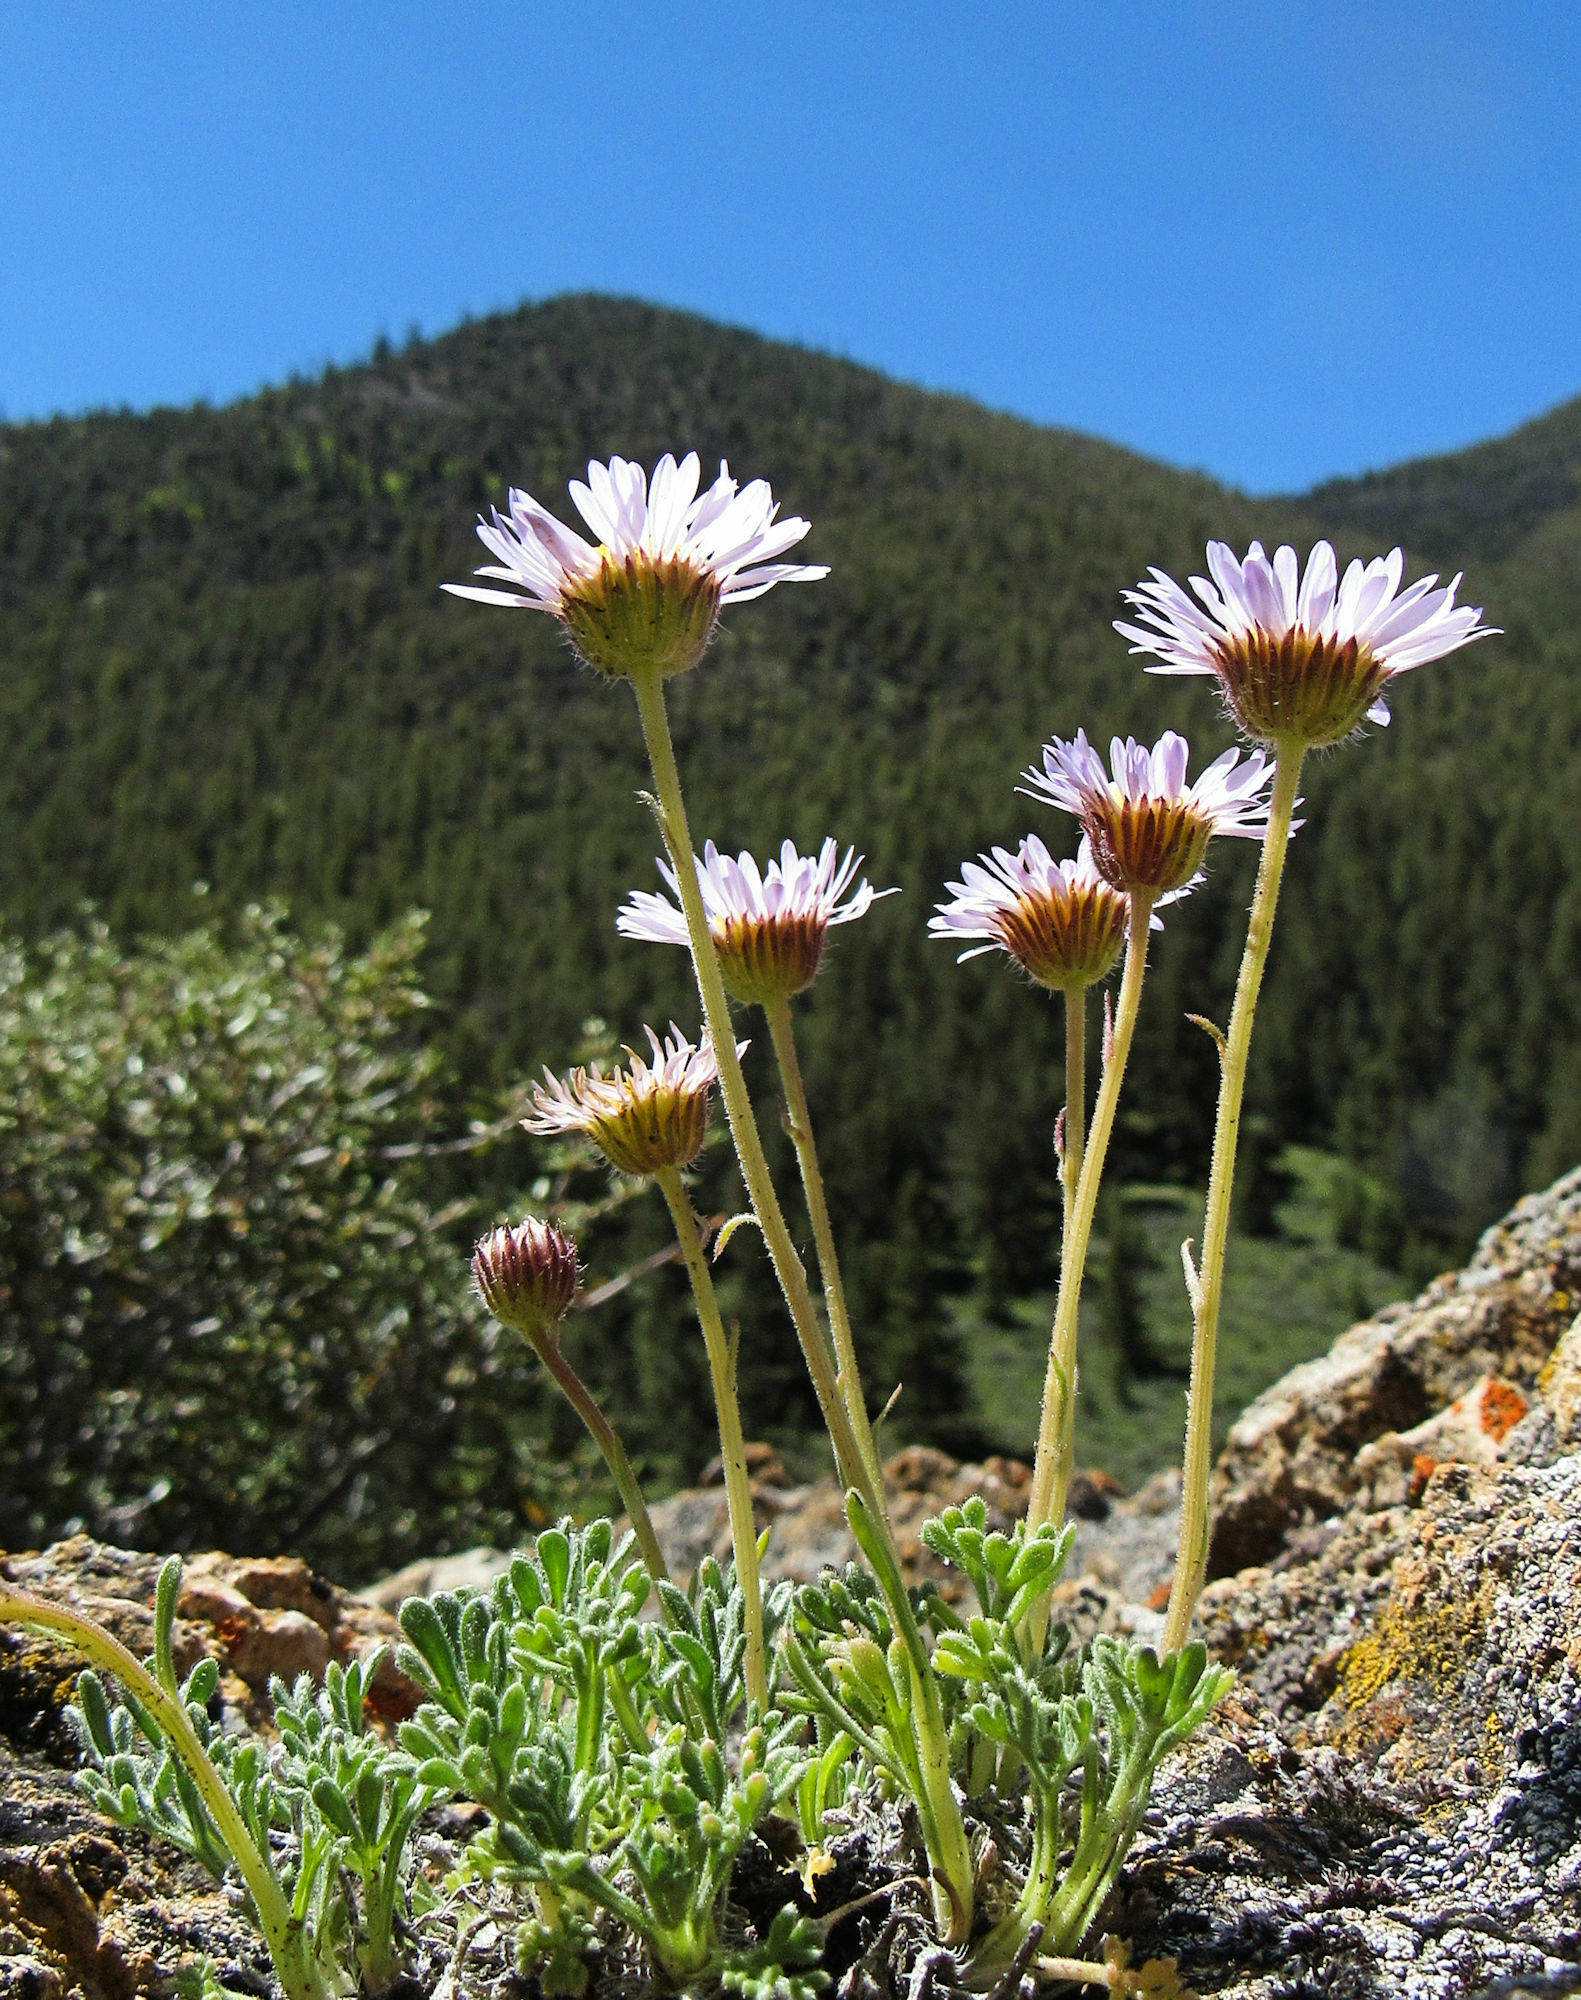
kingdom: Plantae
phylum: Tracheophyta
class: Magnoliopsida
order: Asterales
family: Asteraceae
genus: Erigeron
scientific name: Erigeron compositus
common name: Dwarf mountain fleabane
